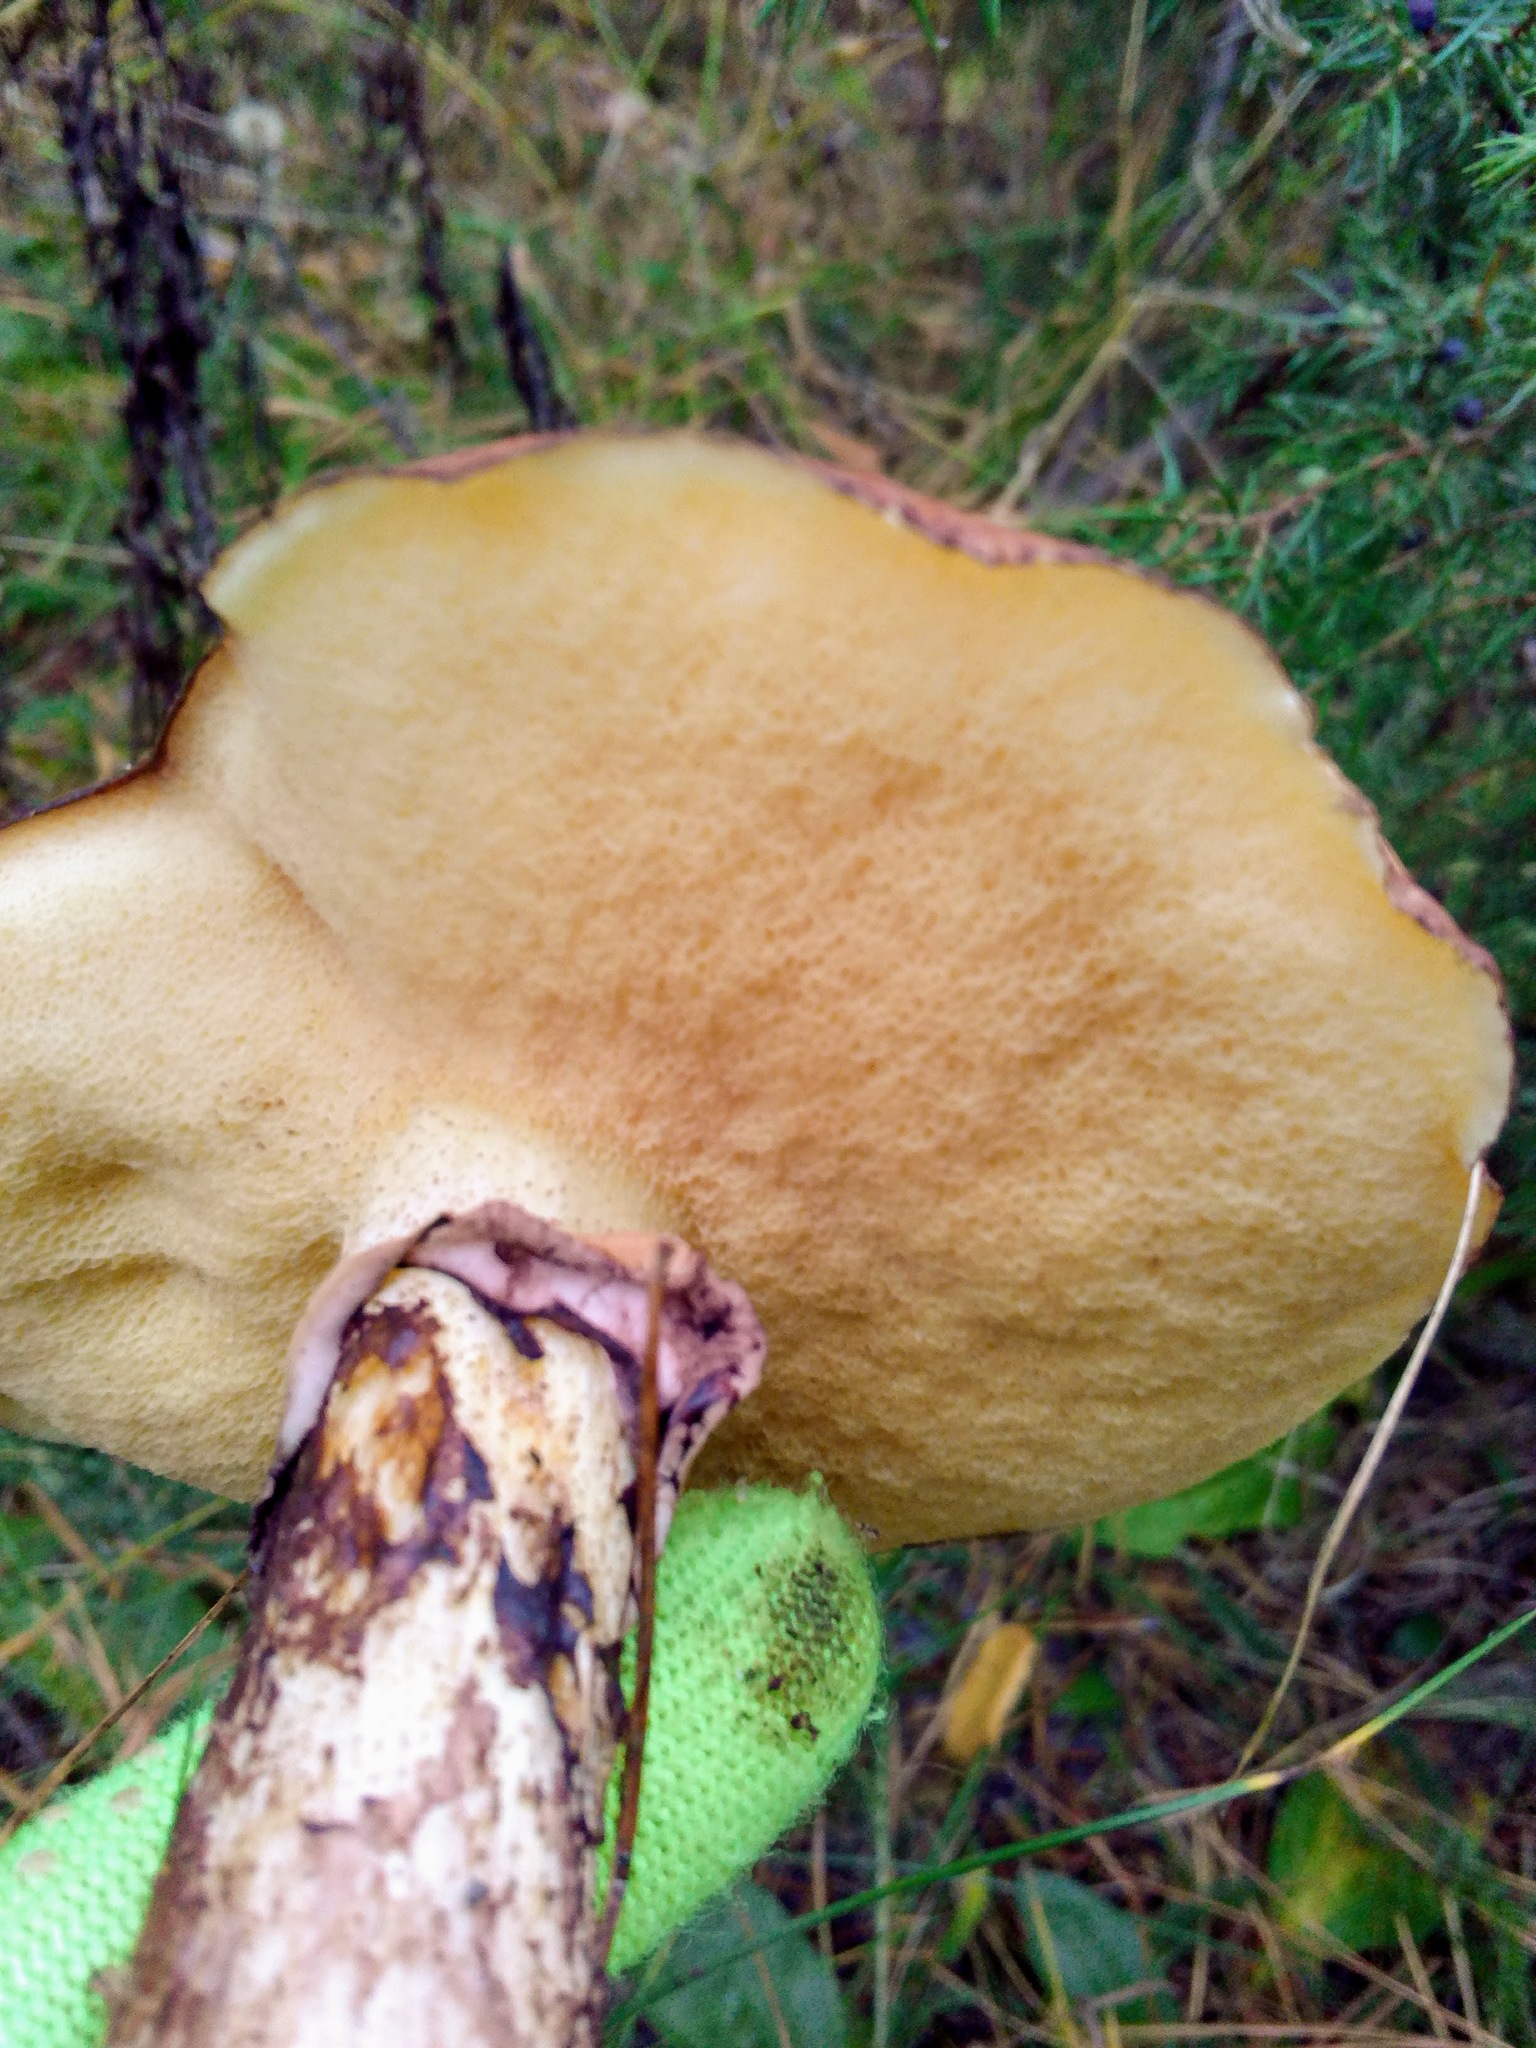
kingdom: Fungi
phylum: Basidiomycota
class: Agaricomycetes
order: Boletales
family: Suillaceae
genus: Suillus
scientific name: Suillus luteus
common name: Slippery jack
